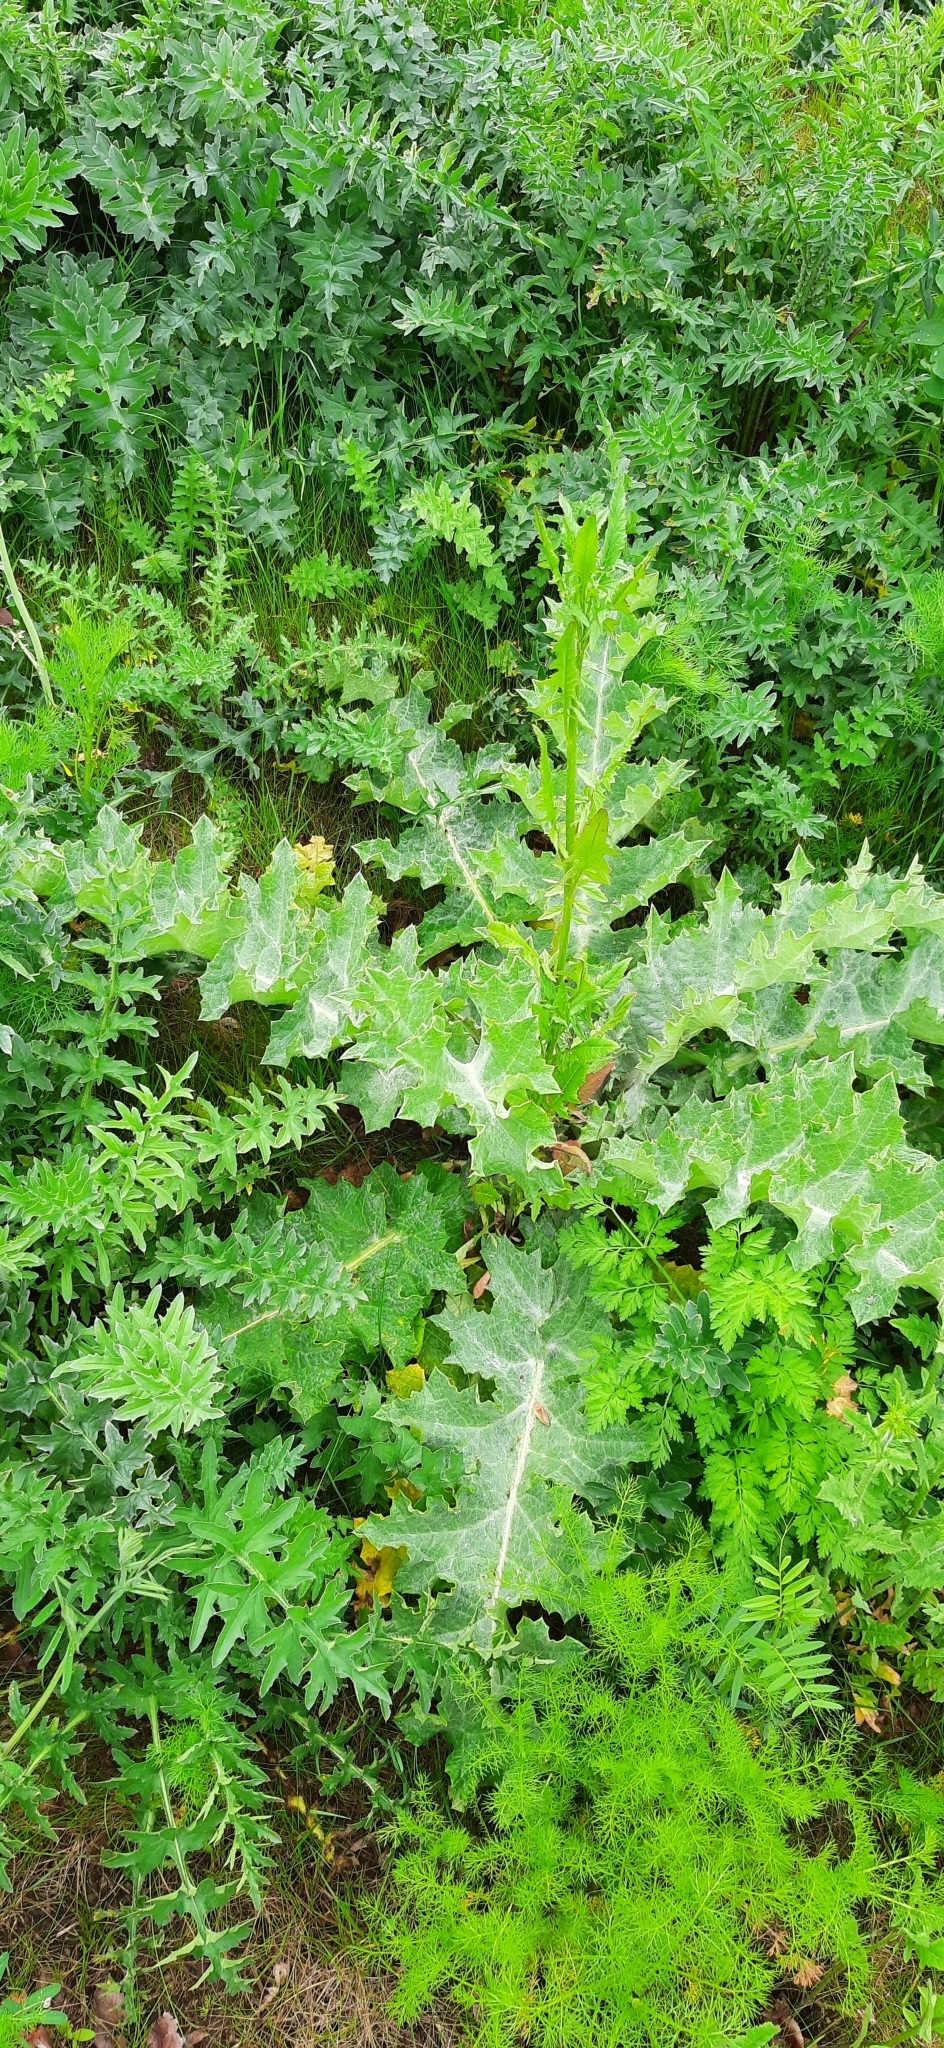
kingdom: Plantae
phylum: Tracheophyta
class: Magnoliopsida
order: Asterales
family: Asteraceae
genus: Onopordum
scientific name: Onopordum acanthium
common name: Scotch thistle
